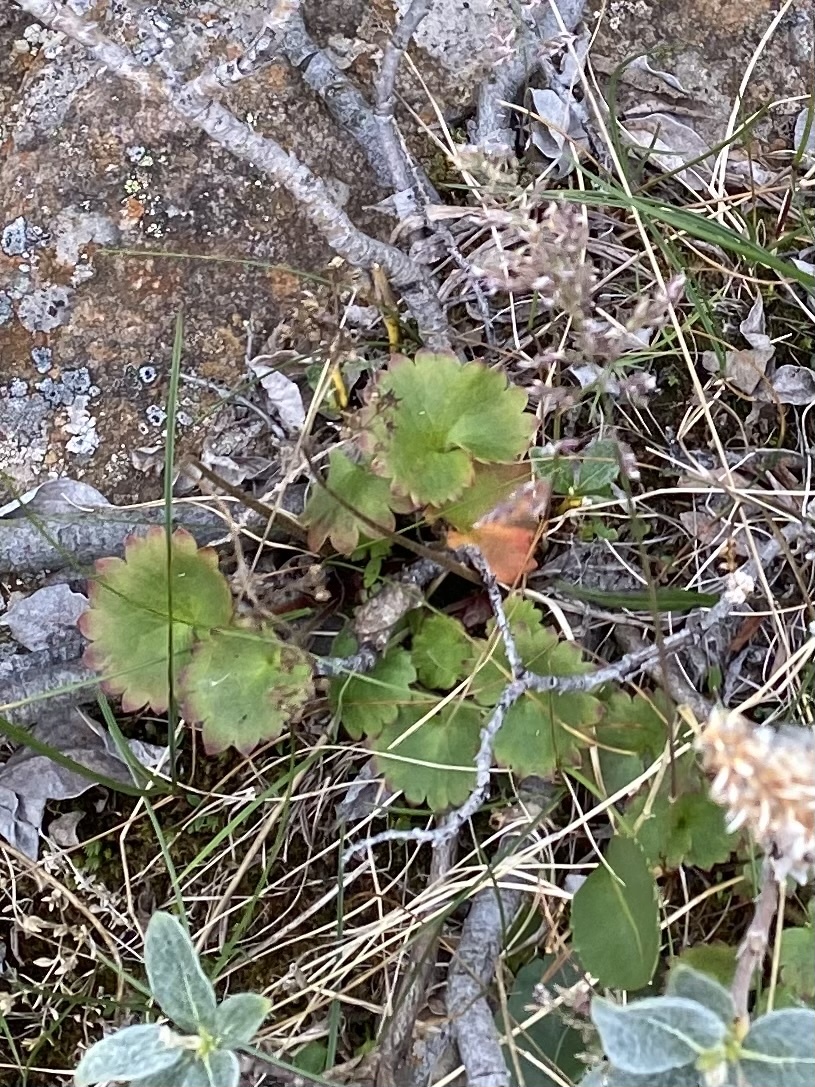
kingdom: Plantae
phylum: Tracheophyta
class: Magnoliopsida
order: Saxifragales
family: Saxifragaceae
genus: Micranthes
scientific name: Micranthes nelsoniana
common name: Nelson's saxifrage
